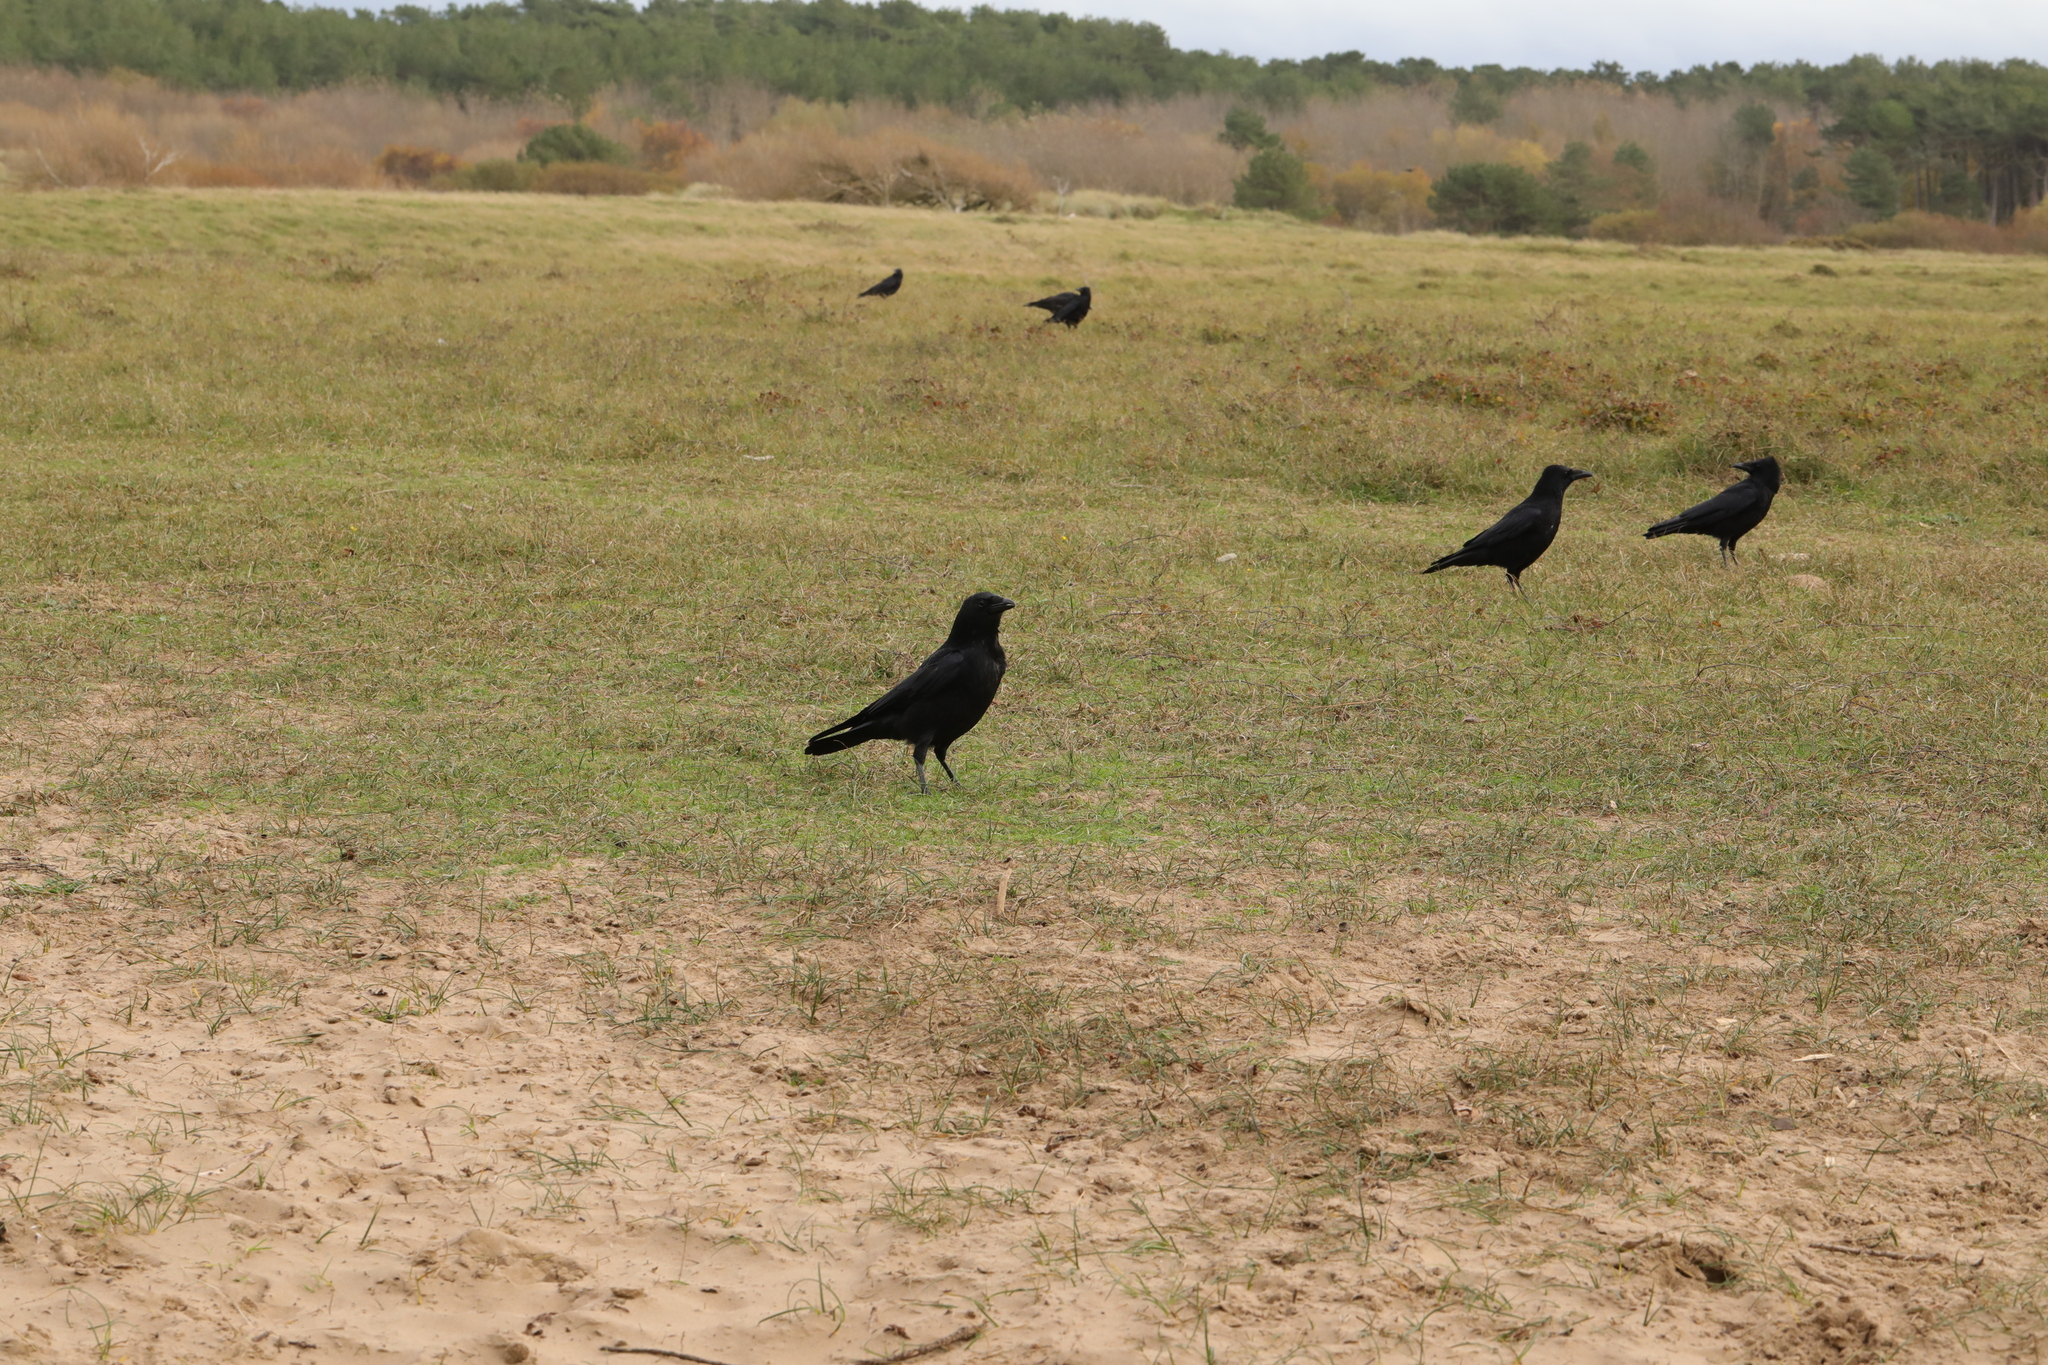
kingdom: Animalia
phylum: Chordata
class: Aves
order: Passeriformes
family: Corvidae
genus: Corvus
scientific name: Corvus corone
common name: Carrion crow
